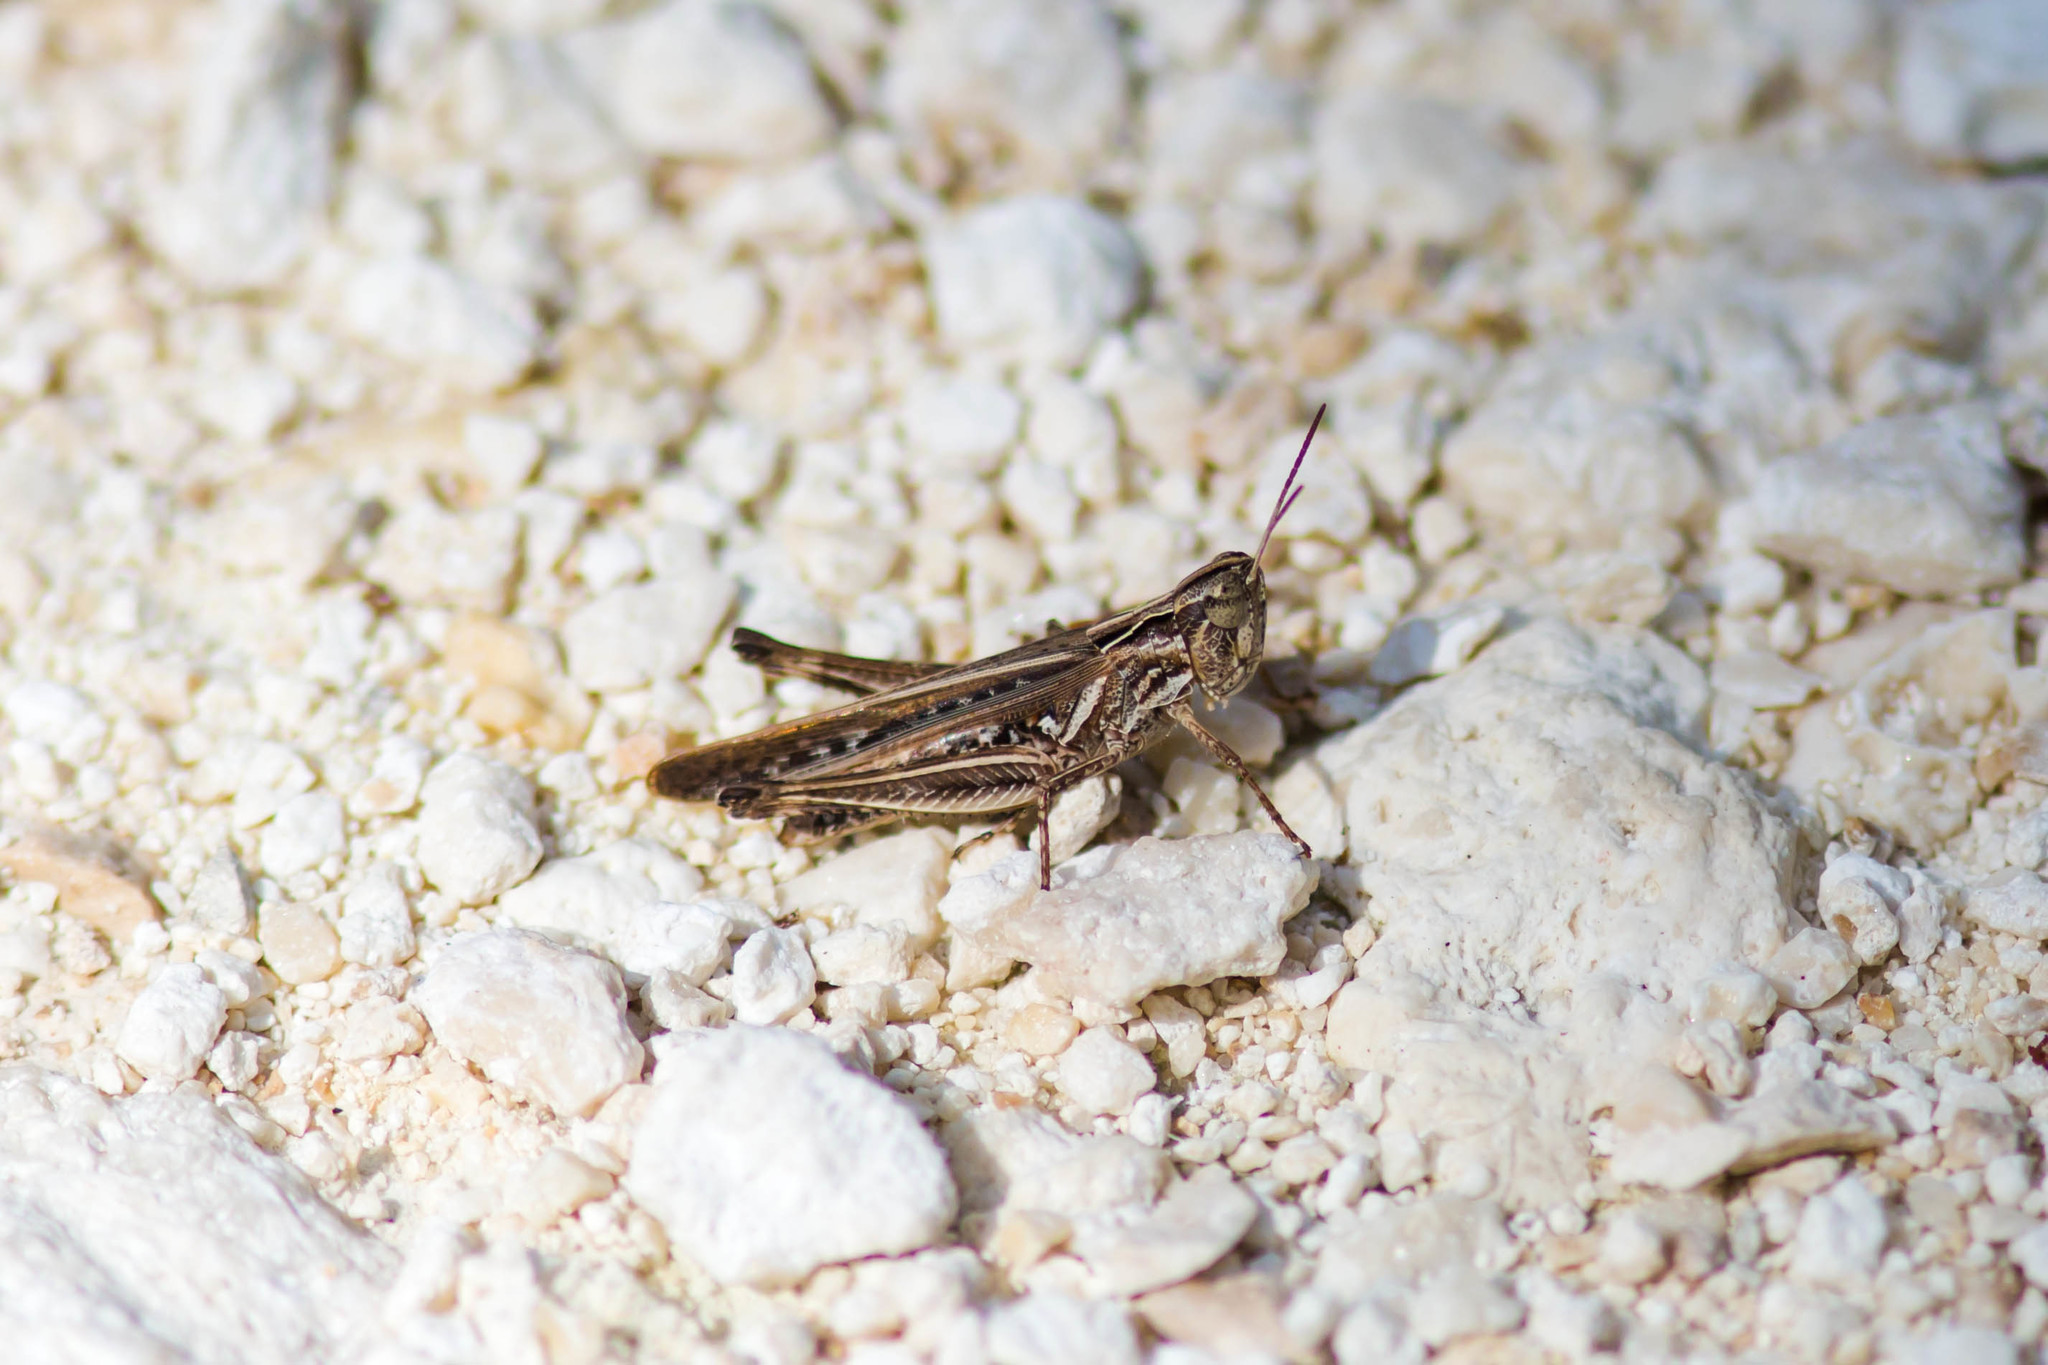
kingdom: Animalia
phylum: Arthropoda
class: Insecta
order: Orthoptera
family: Acrididae
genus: Orphulella
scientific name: Orphulella pelidna
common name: Spotted-wing grasshopper
